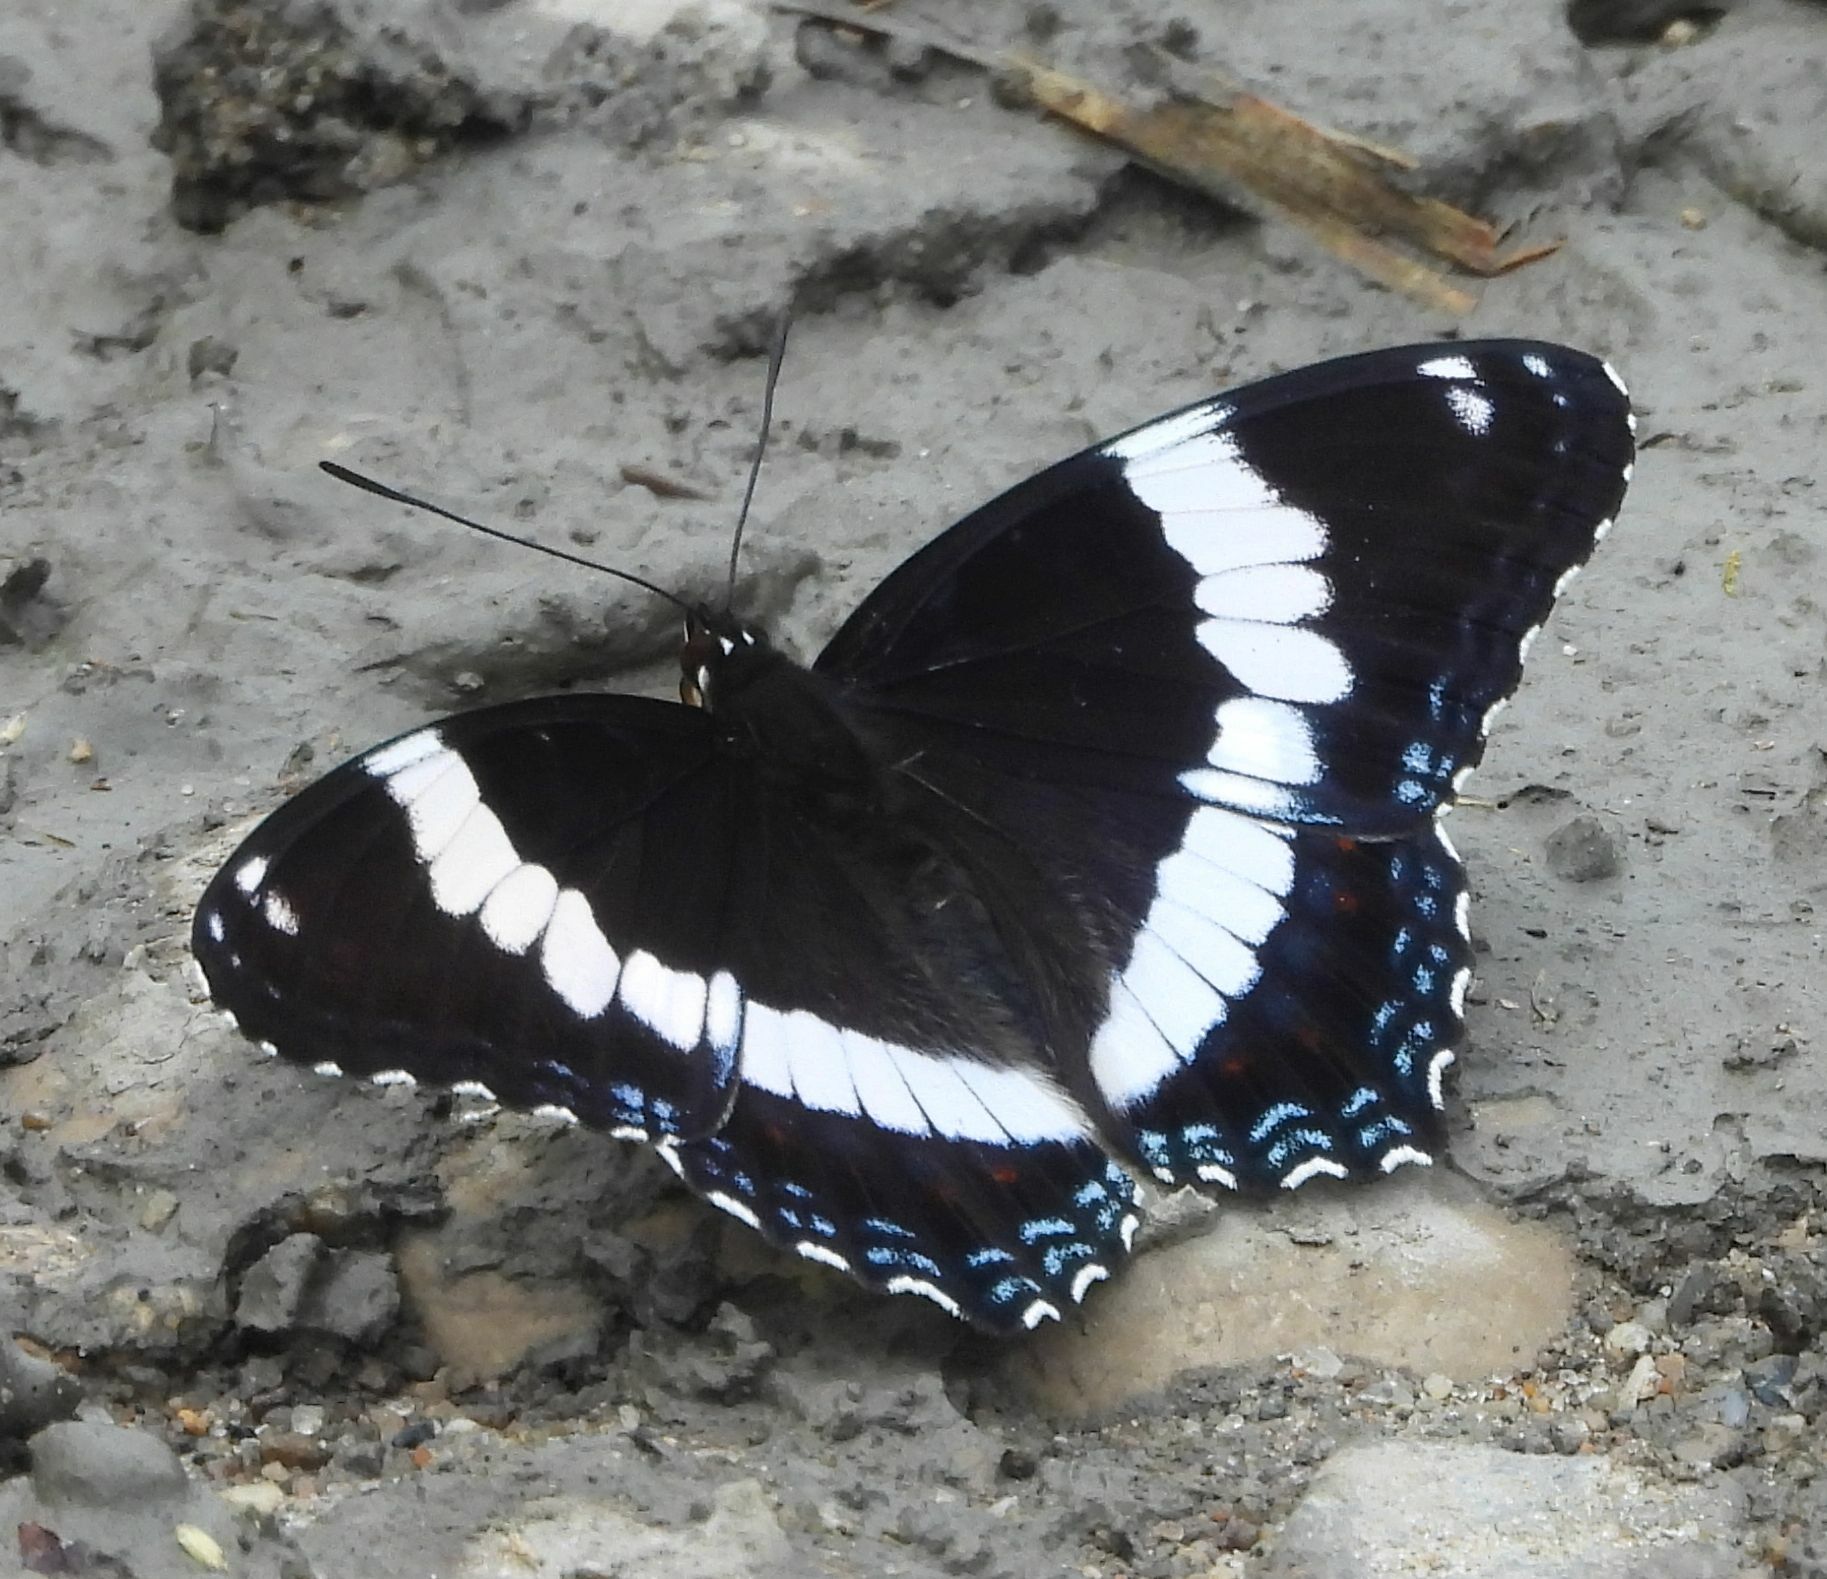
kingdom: Animalia
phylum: Arthropoda
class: Insecta
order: Lepidoptera
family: Nymphalidae
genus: Limenitis
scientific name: Limenitis arthemis
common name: Red-spotted admiral
